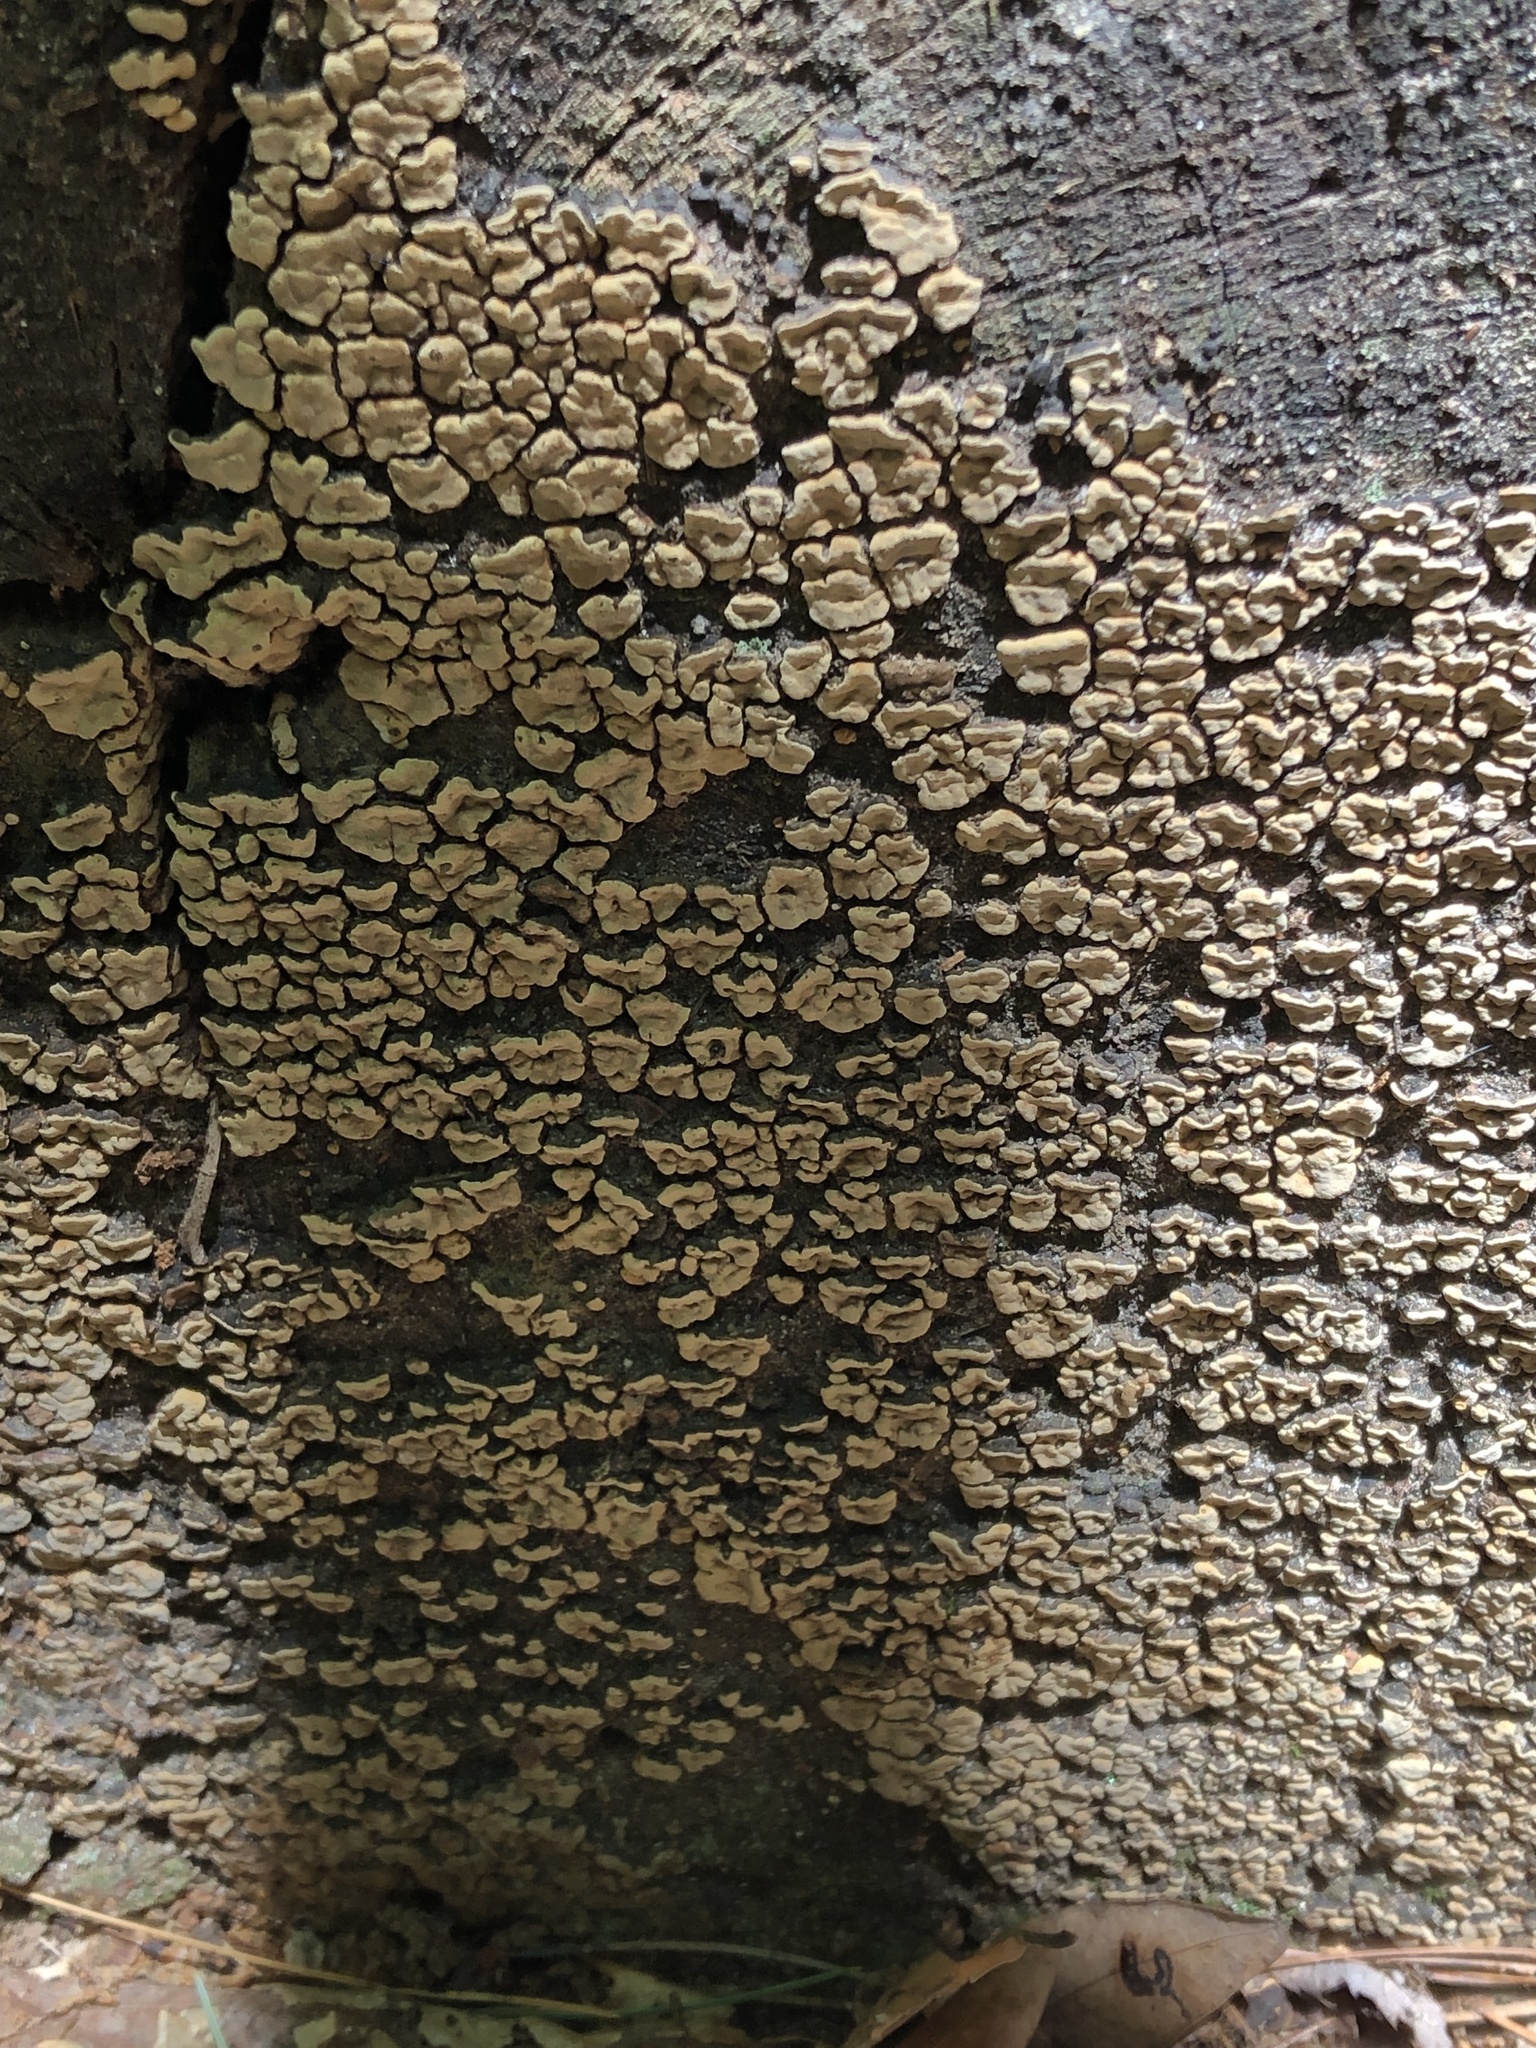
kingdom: Fungi
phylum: Basidiomycota
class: Agaricomycetes
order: Russulales
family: Stereaceae
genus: Xylobolus
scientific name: Xylobolus frustulatus
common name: Ceramic parchment
